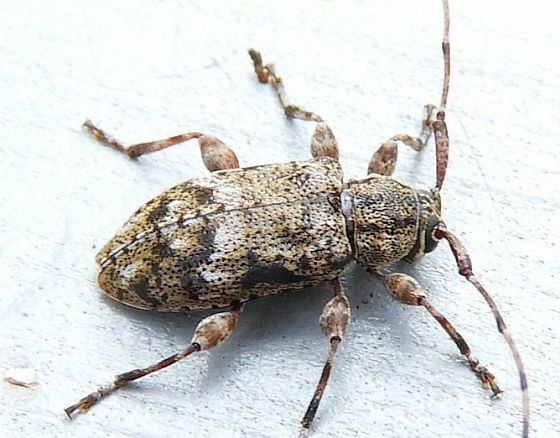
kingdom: Animalia
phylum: Arthropoda
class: Insecta
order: Coleoptera
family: Cerambycidae
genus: Astylopsis
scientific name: Astylopsis collaris
